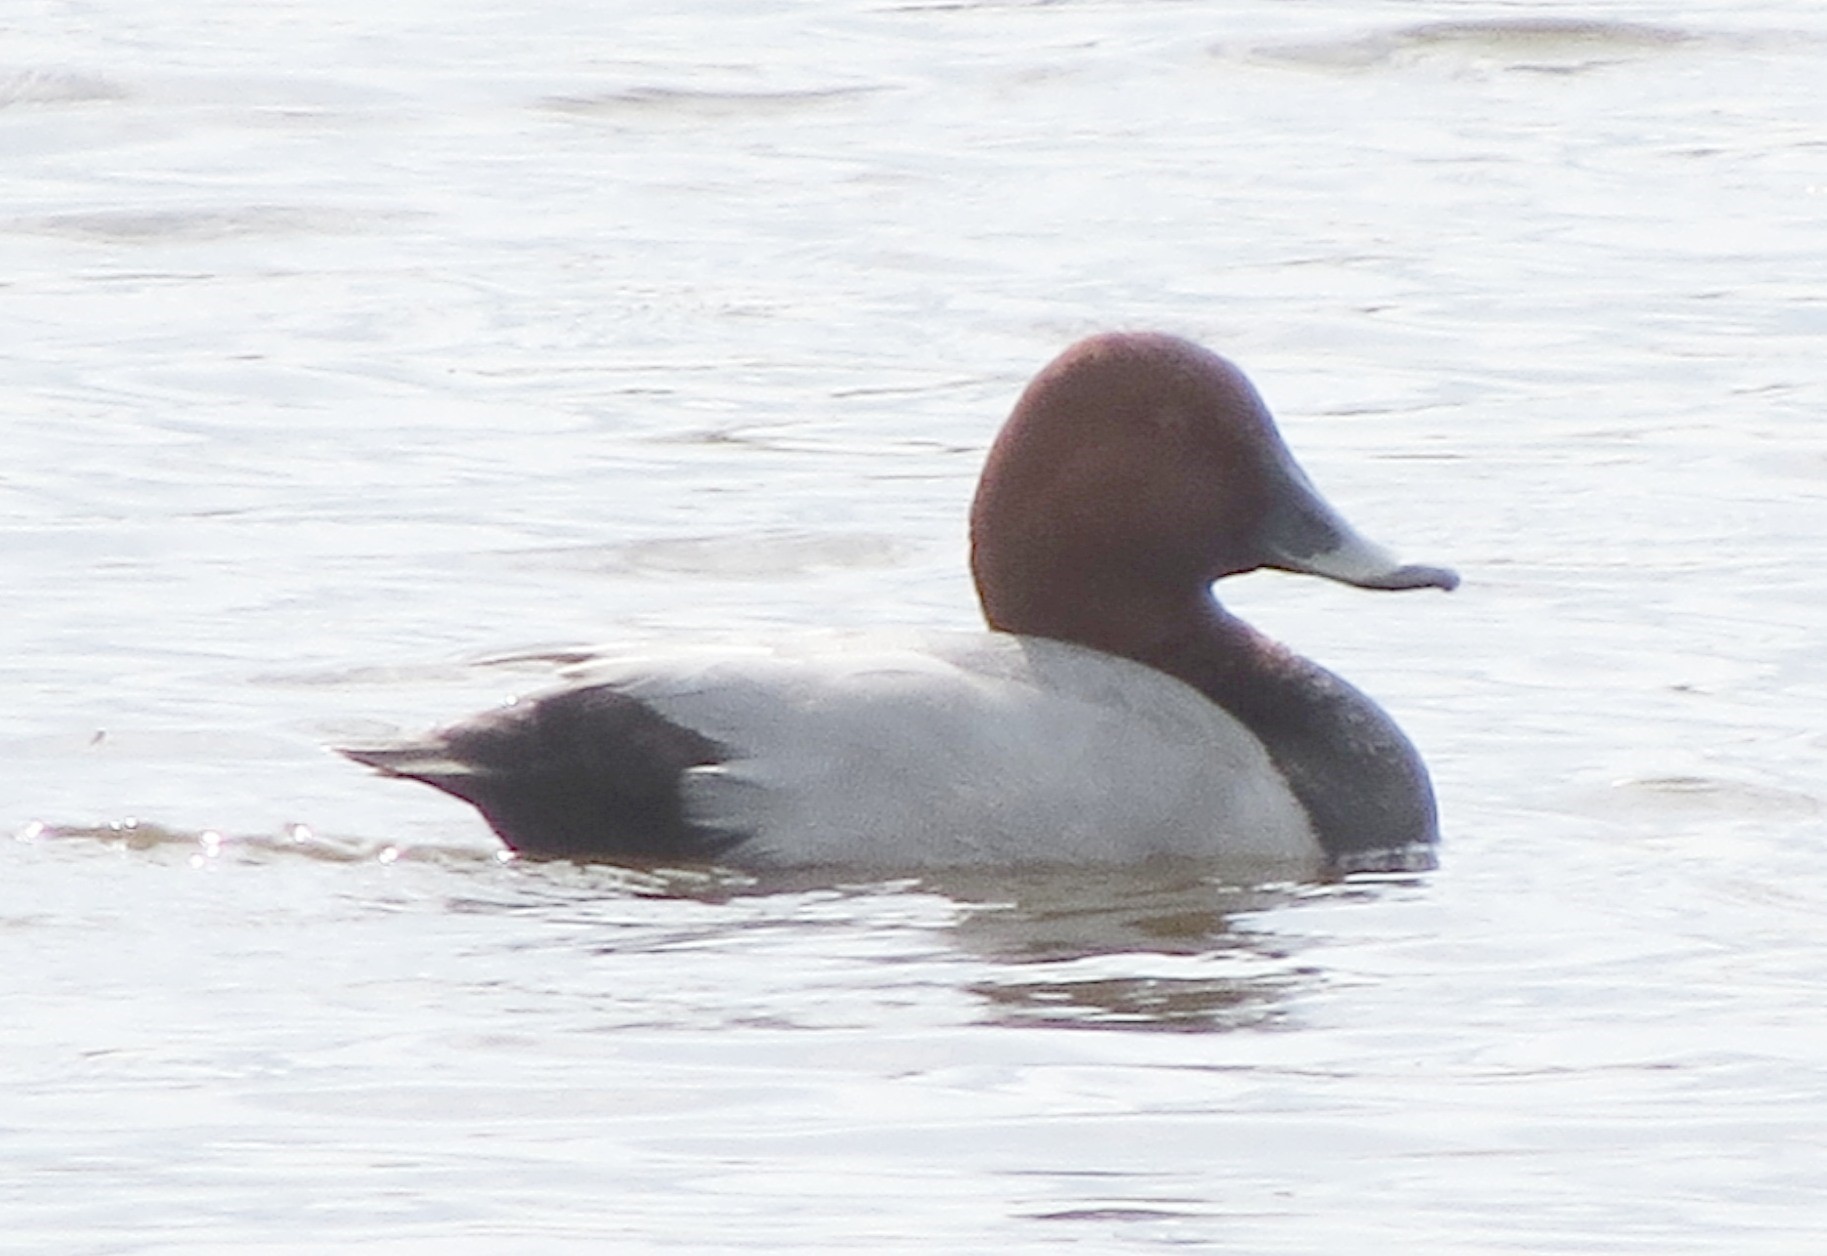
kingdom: Animalia
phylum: Chordata
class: Aves
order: Anseriformes
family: Anatidae
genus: Aythya
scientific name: Aythya ferina
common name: Common pochard
